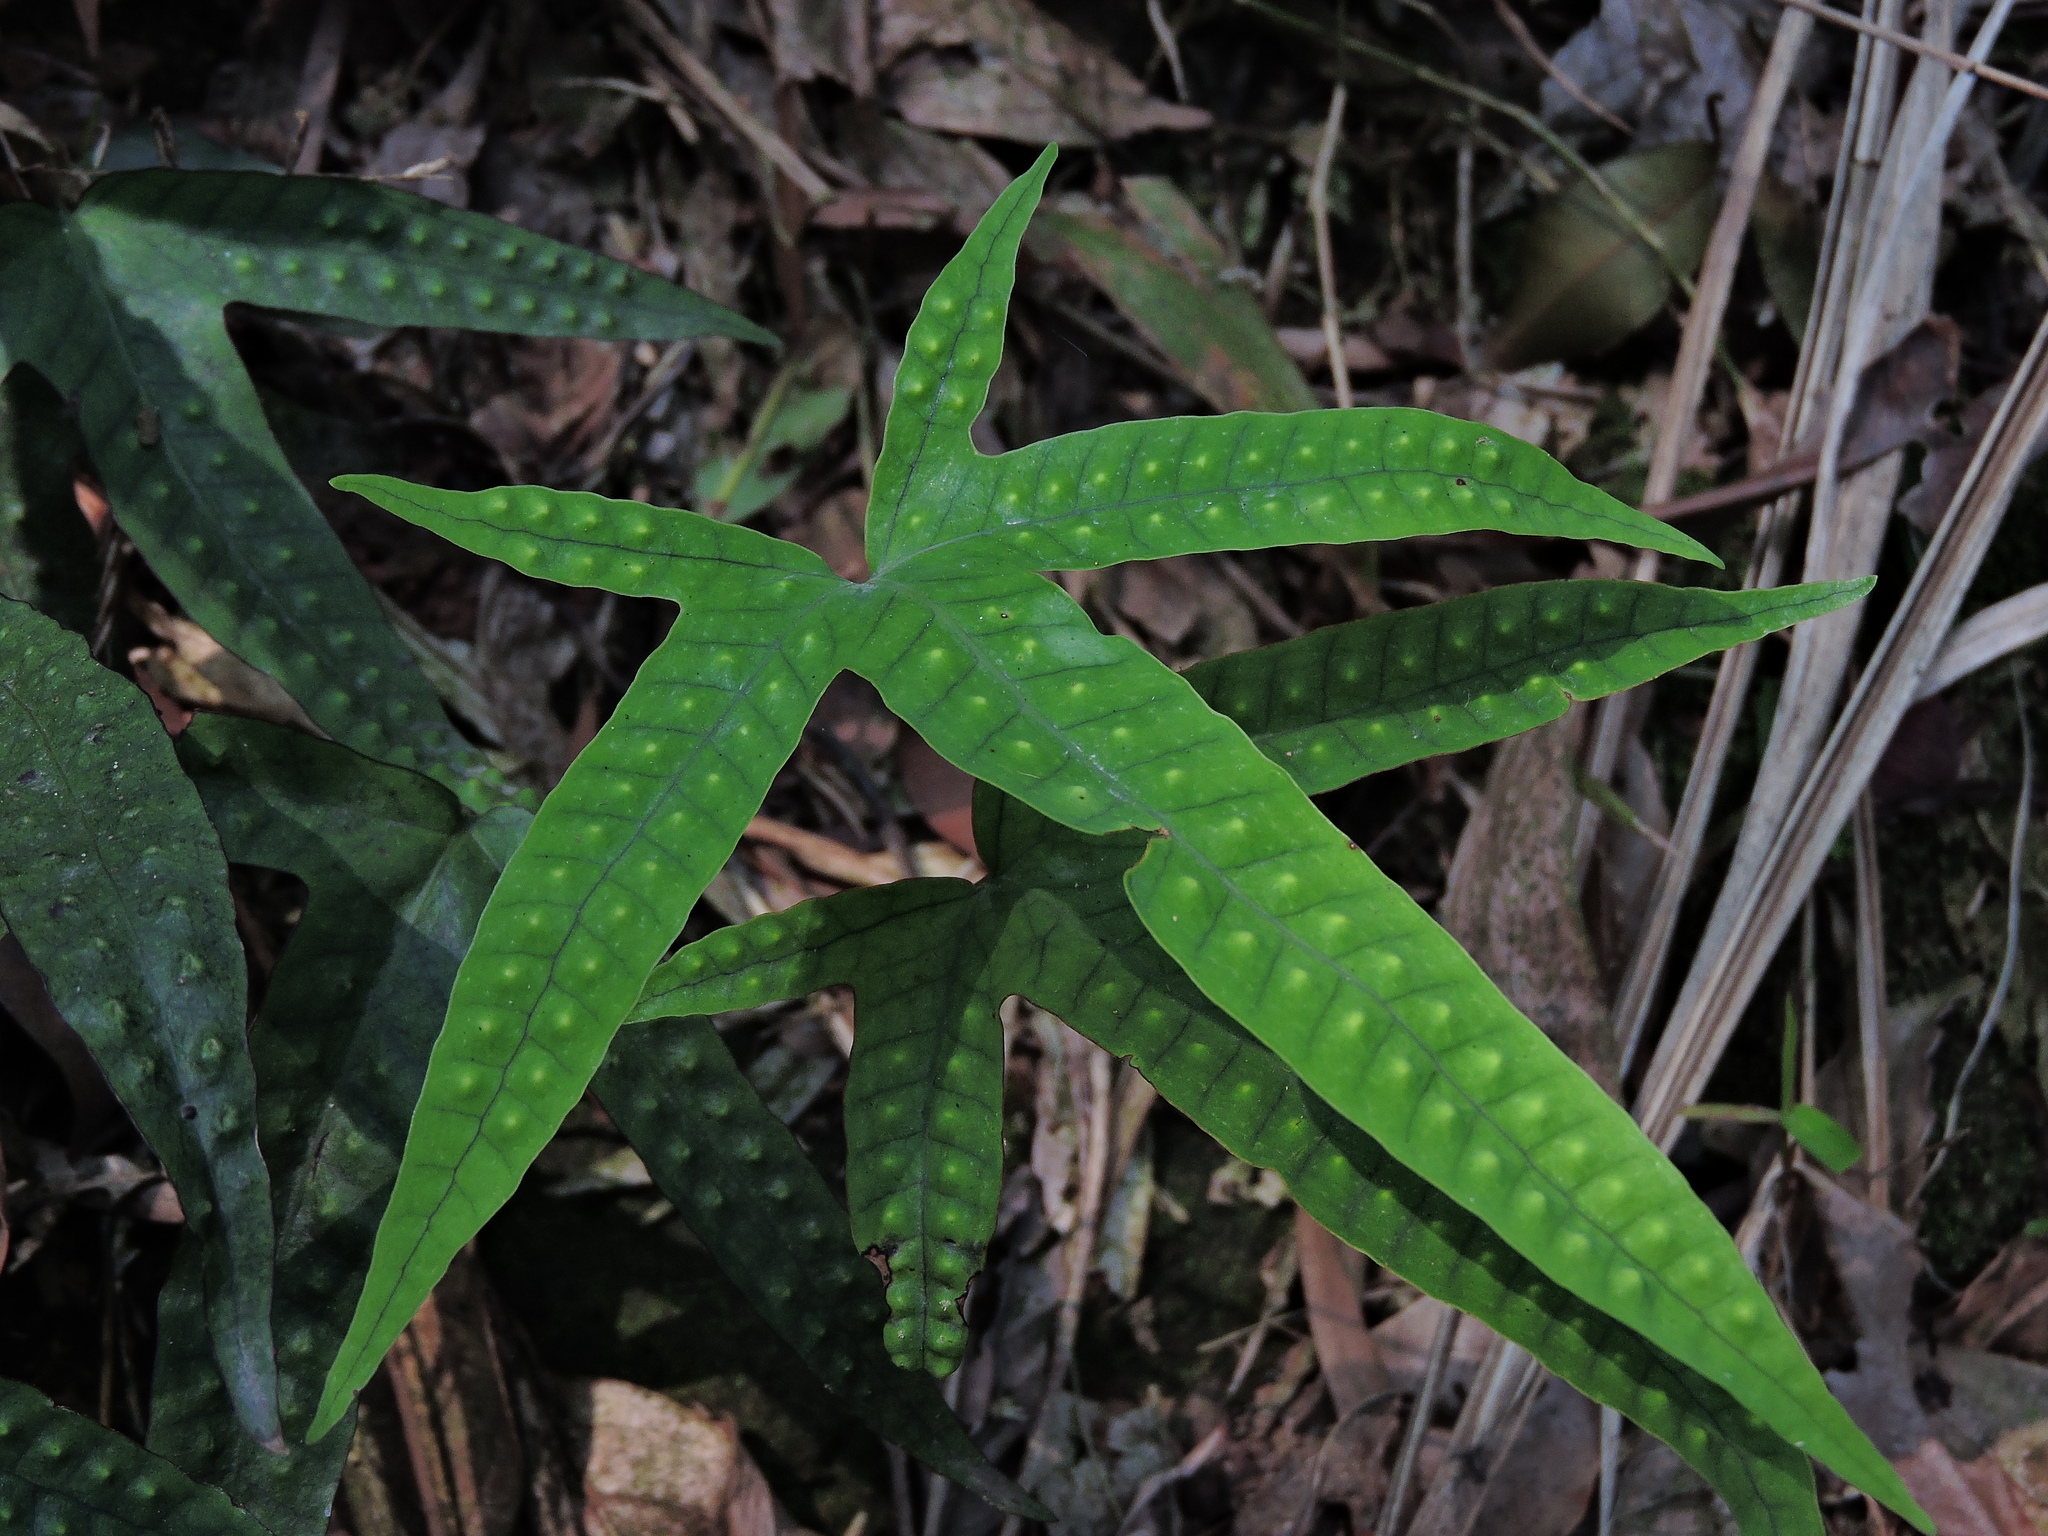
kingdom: Plantae
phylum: Tracheophyta
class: Polypodiopsida
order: Polypodiales
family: Polypodiaceae
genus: Selliguea
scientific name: Selliguea hastata
